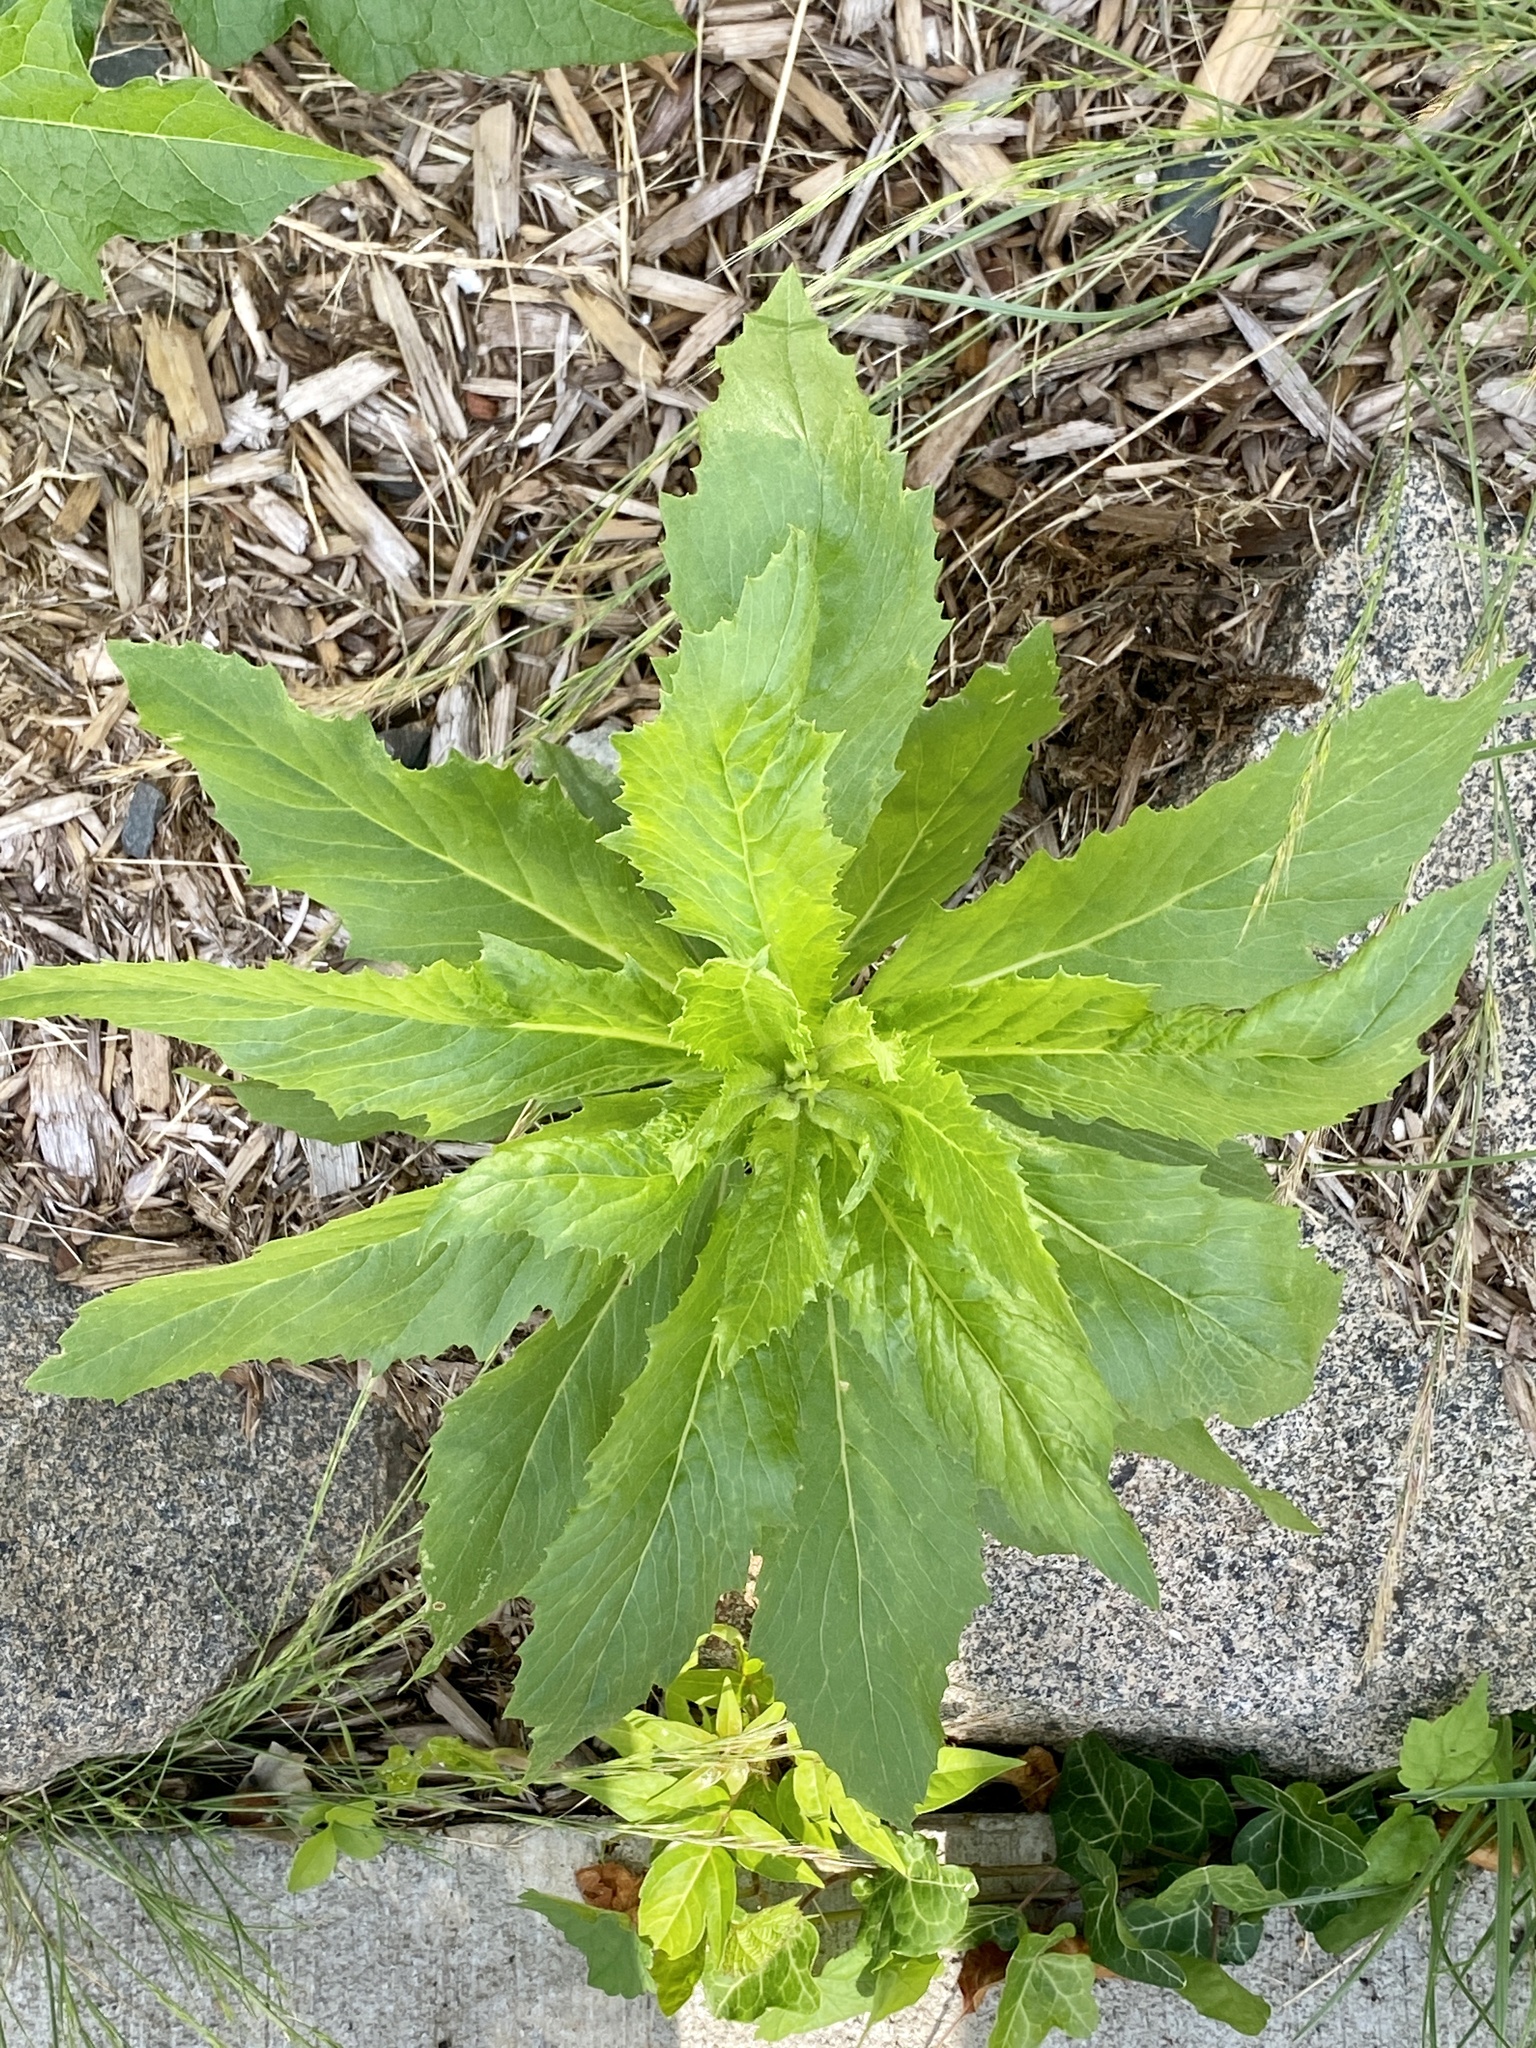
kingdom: Plantae
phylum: Tracheophyta
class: Magnoliopsida
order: Asterales
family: Asteraceae
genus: Erechtites
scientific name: Erechtites hieraciifolius
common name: American burnweed
